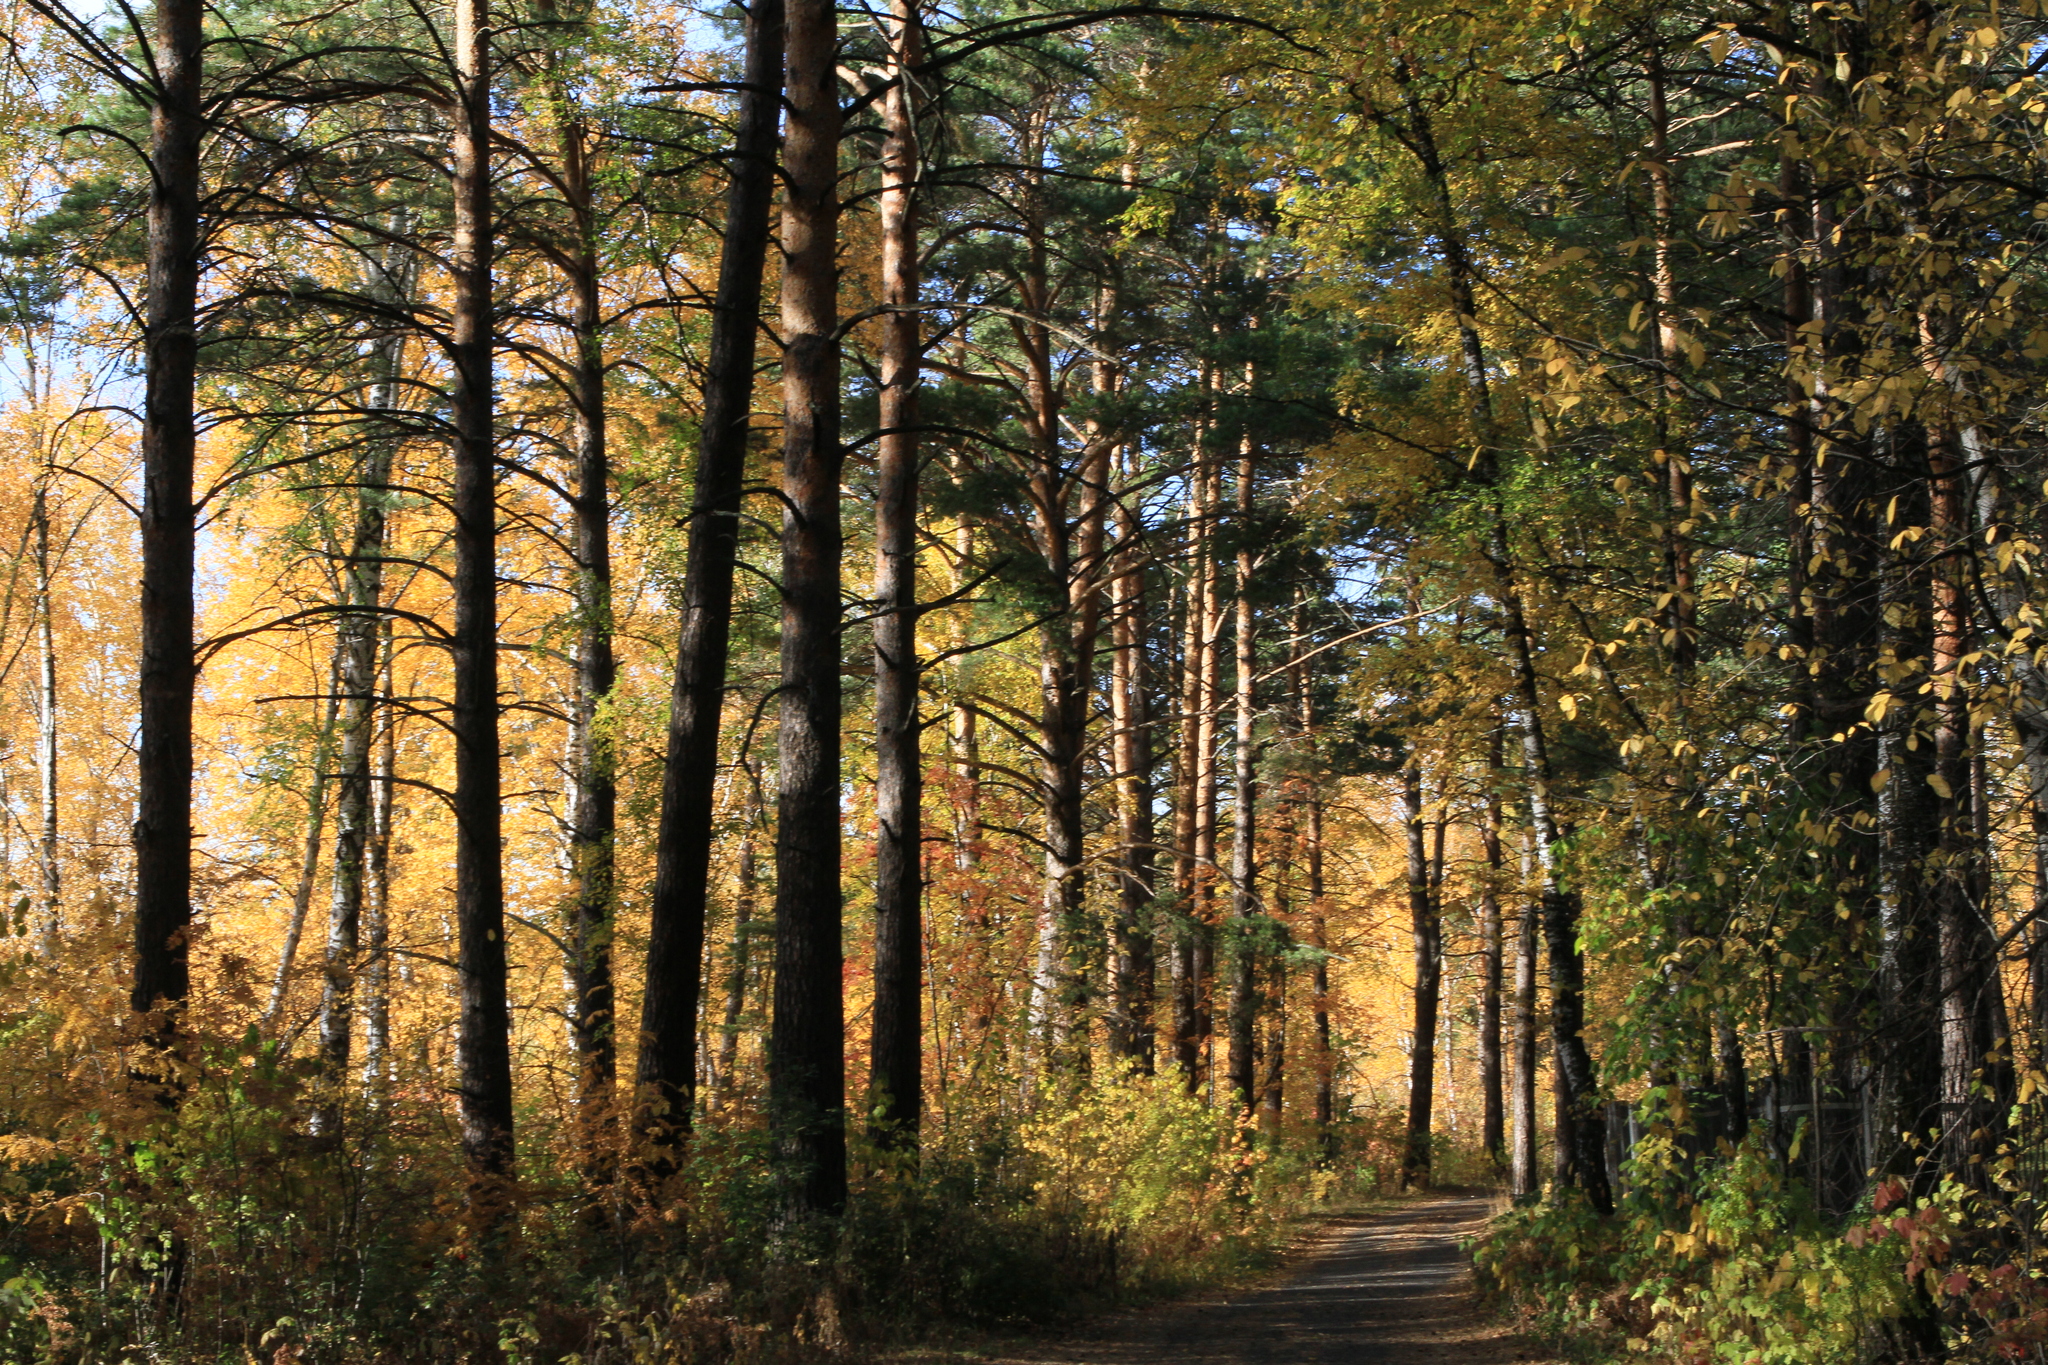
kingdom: Plantae
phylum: Tracheophyta
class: Pinopsida
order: Pinales
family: Pinaceae
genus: Pinus
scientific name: Pinus sylvestris
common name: Scots pine
